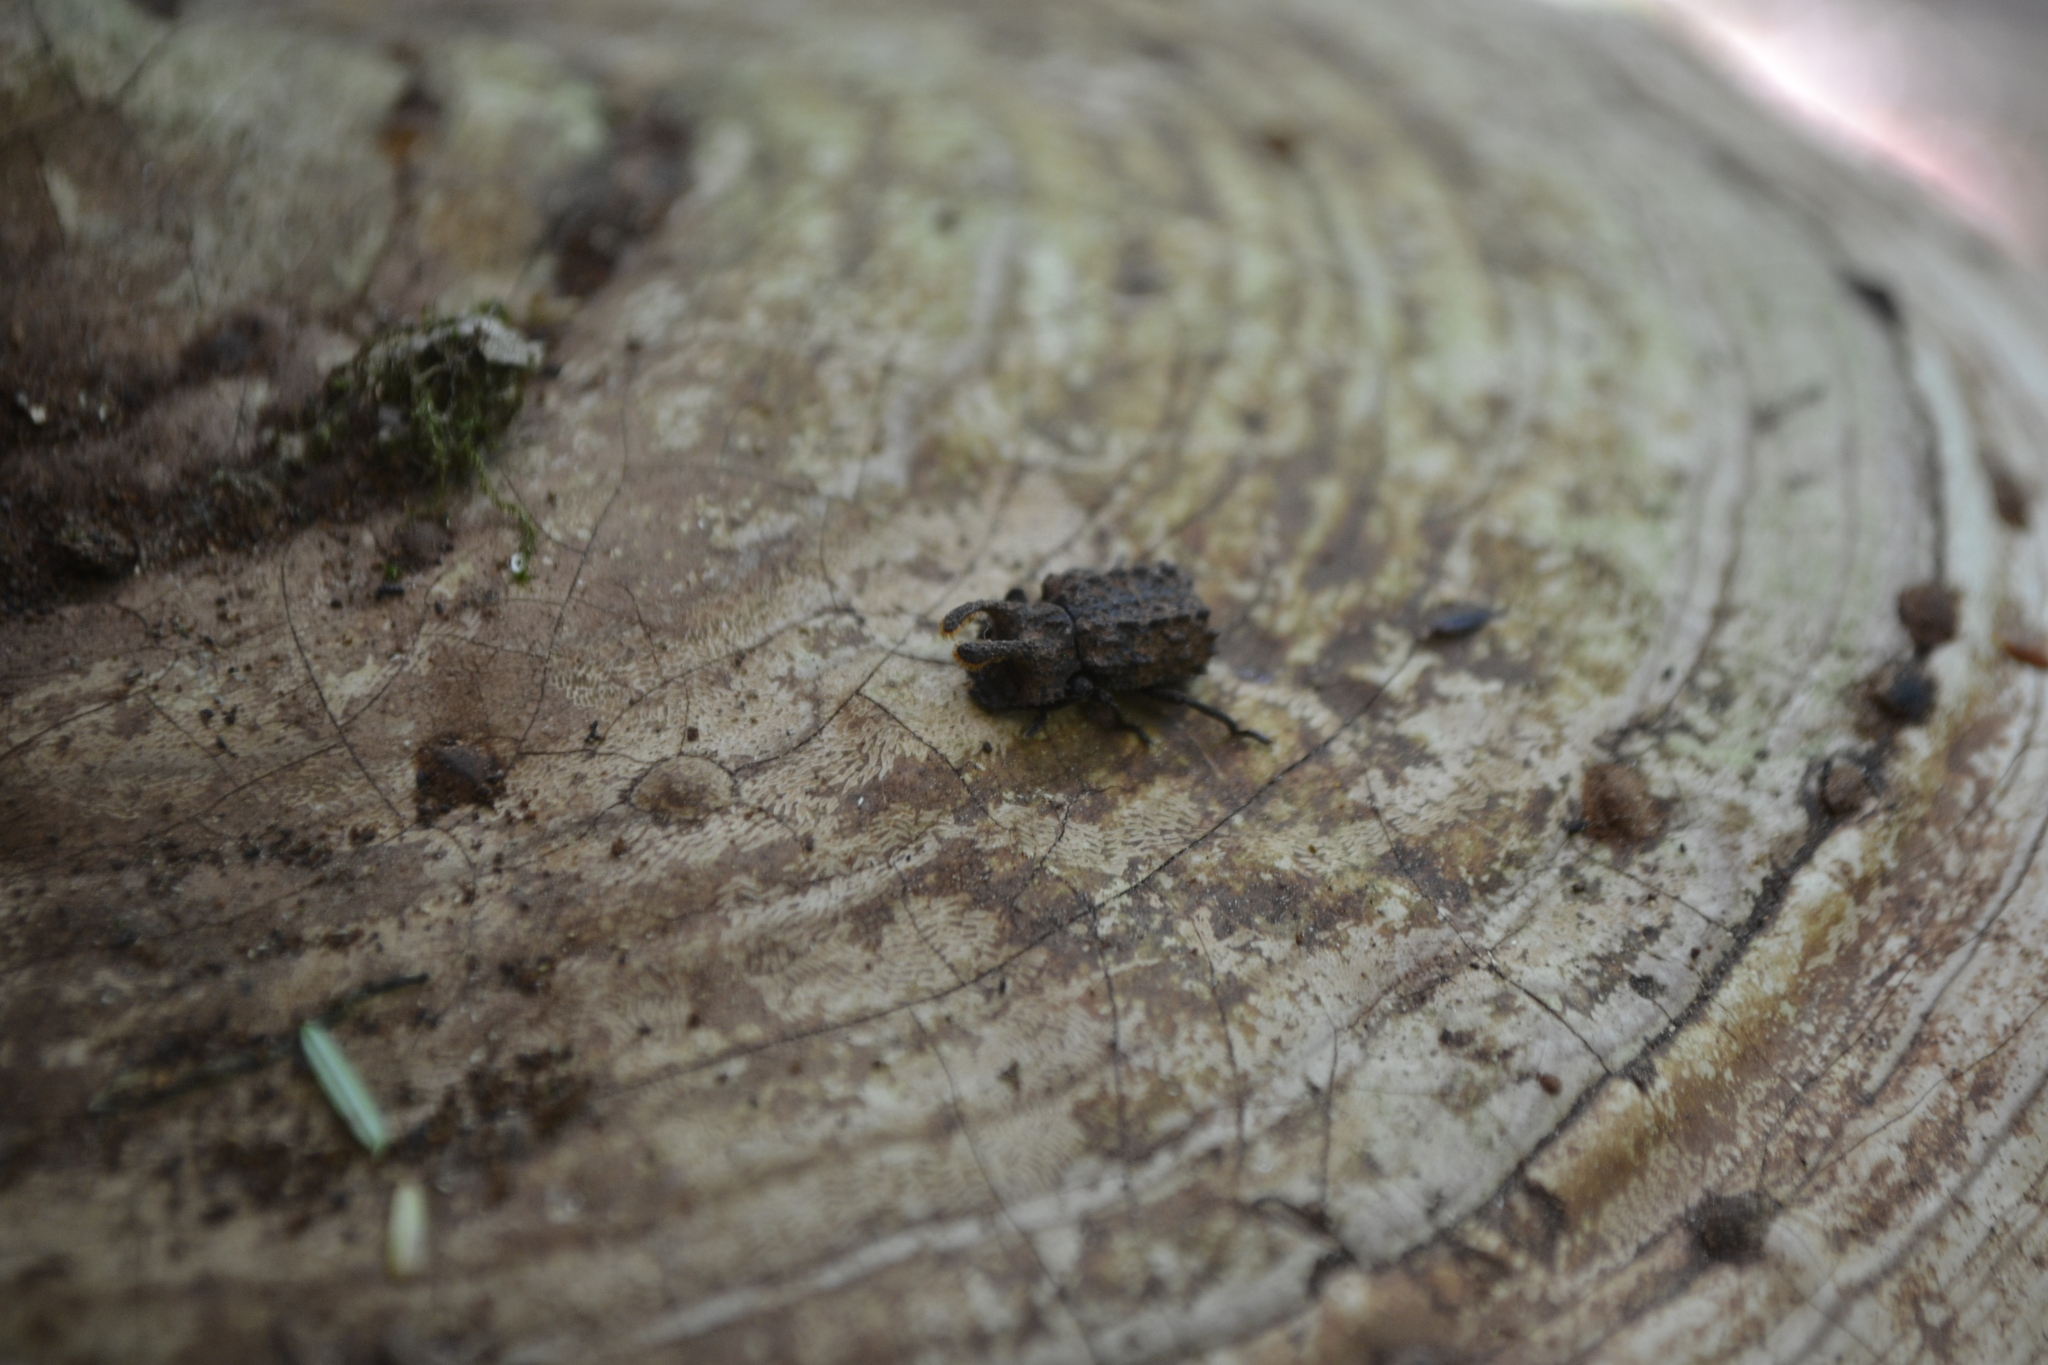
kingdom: Animalia
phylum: Arthropoda
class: Insecta
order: Coleoptera
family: Tenebrionidae
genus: Gnatocerus
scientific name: Gnatocerus cornutus
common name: Broad-horned flour beetle
